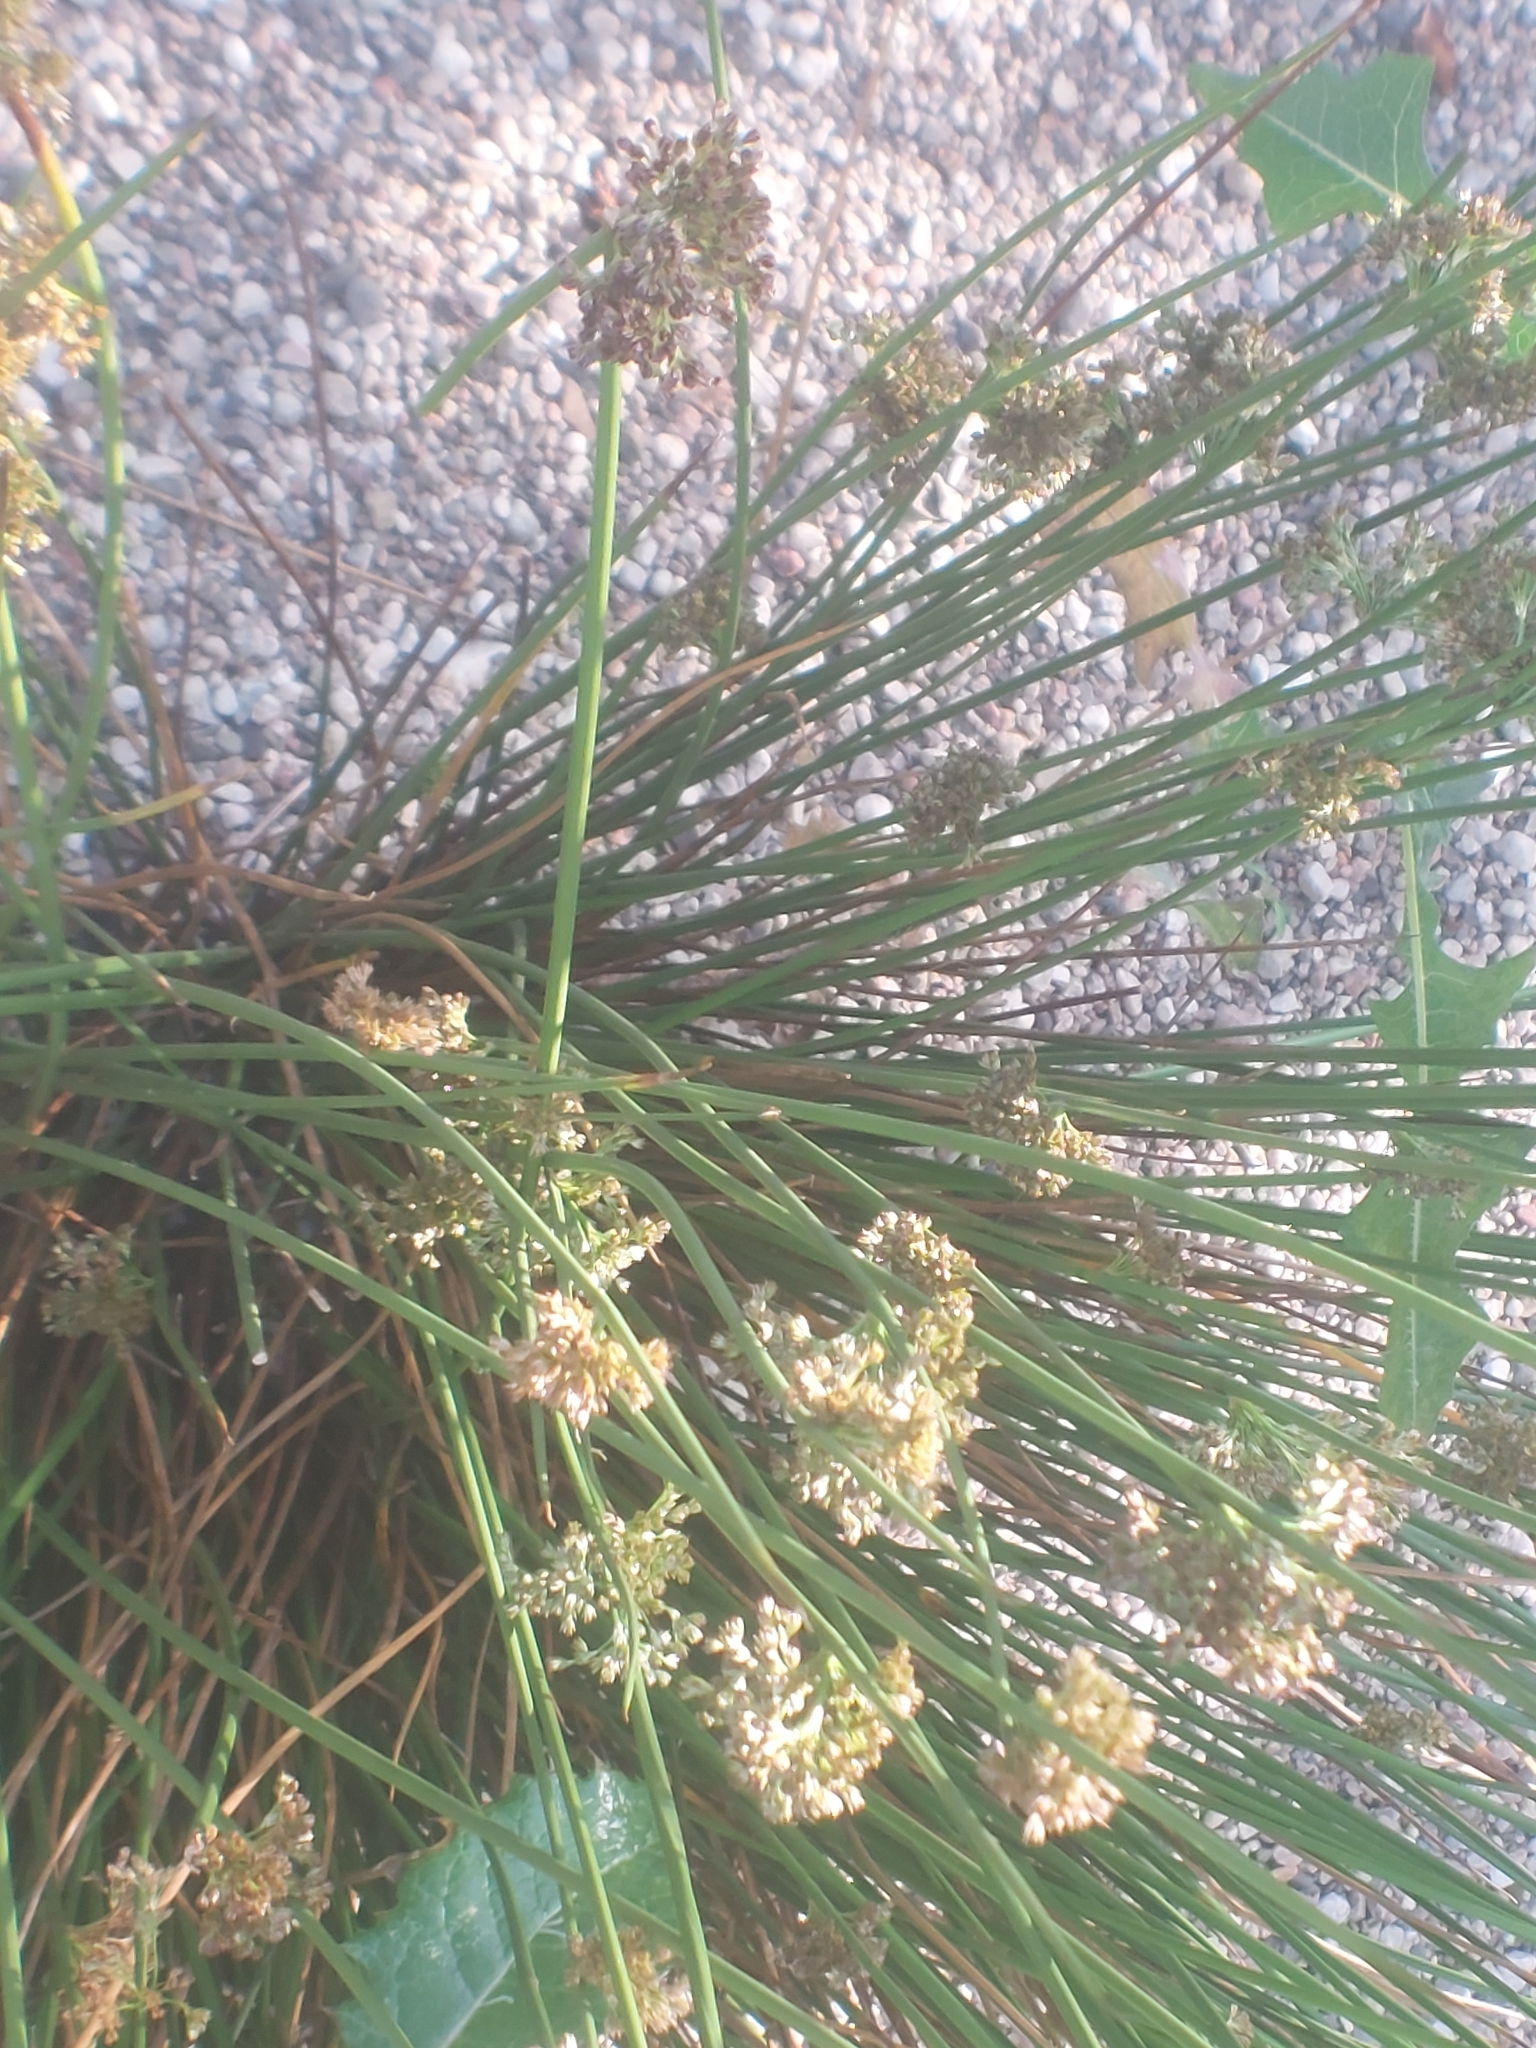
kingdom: Plantae
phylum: Tracheophyta
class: Liliopsida
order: Poales
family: Juncaceae
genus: Juncus
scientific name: Juncus effusus
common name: Soft rush
